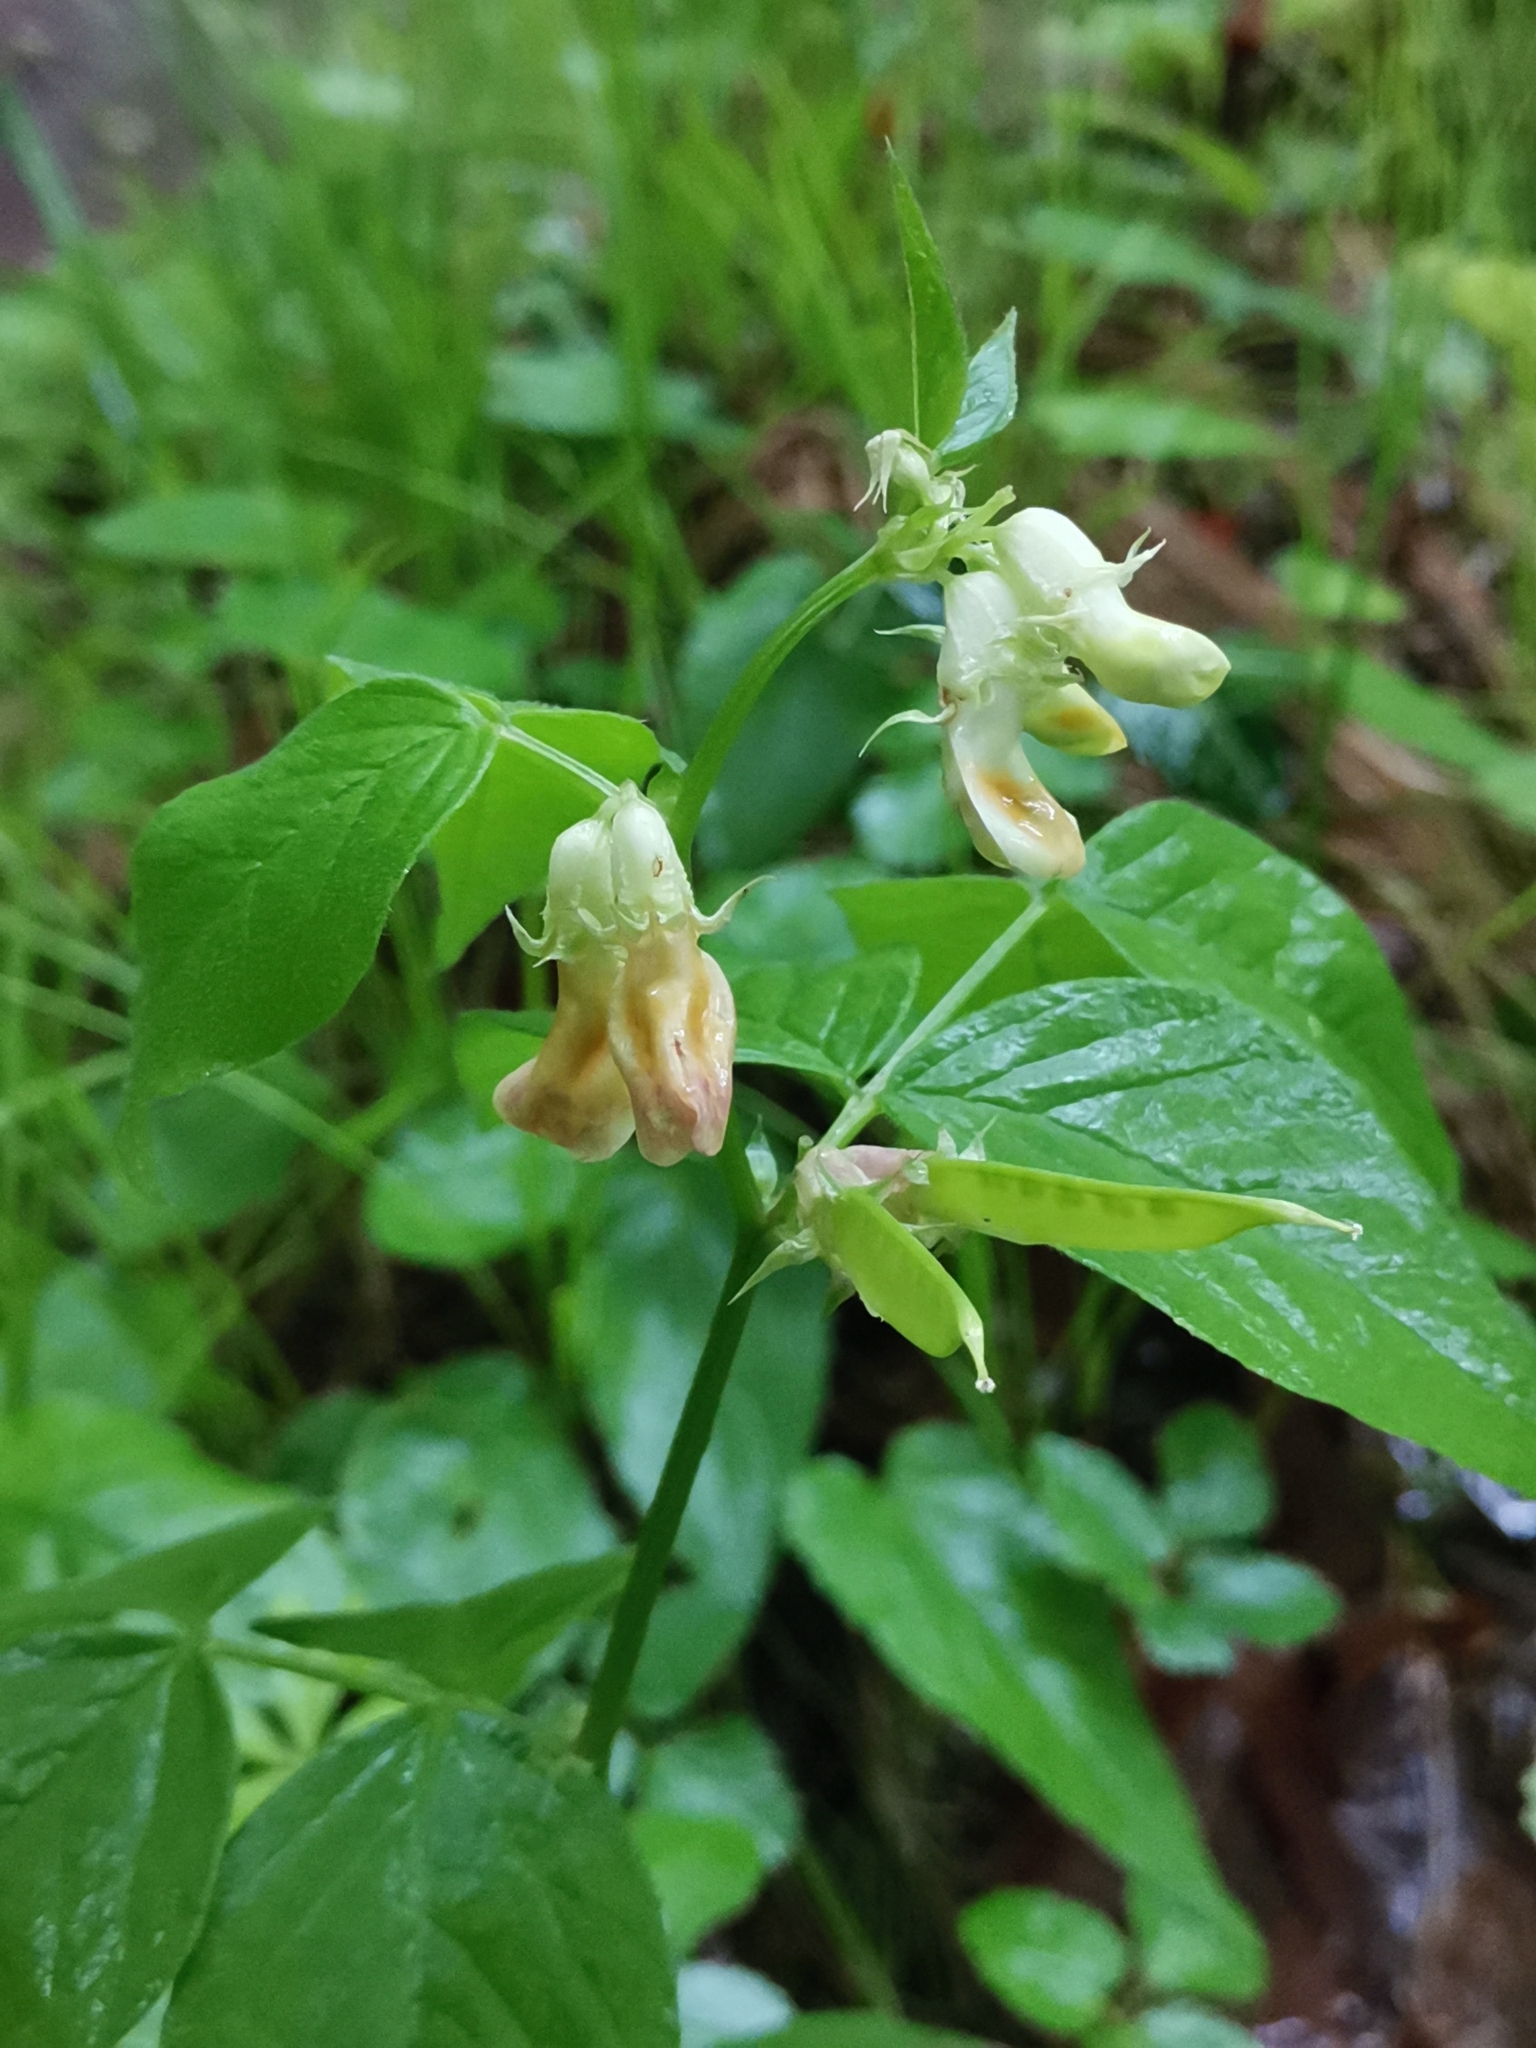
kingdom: Plantae
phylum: Tracheophyta
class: Magnoliopsida
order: Fabales
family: Fabaceae
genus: Vicia
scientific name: Vicia oroboides
